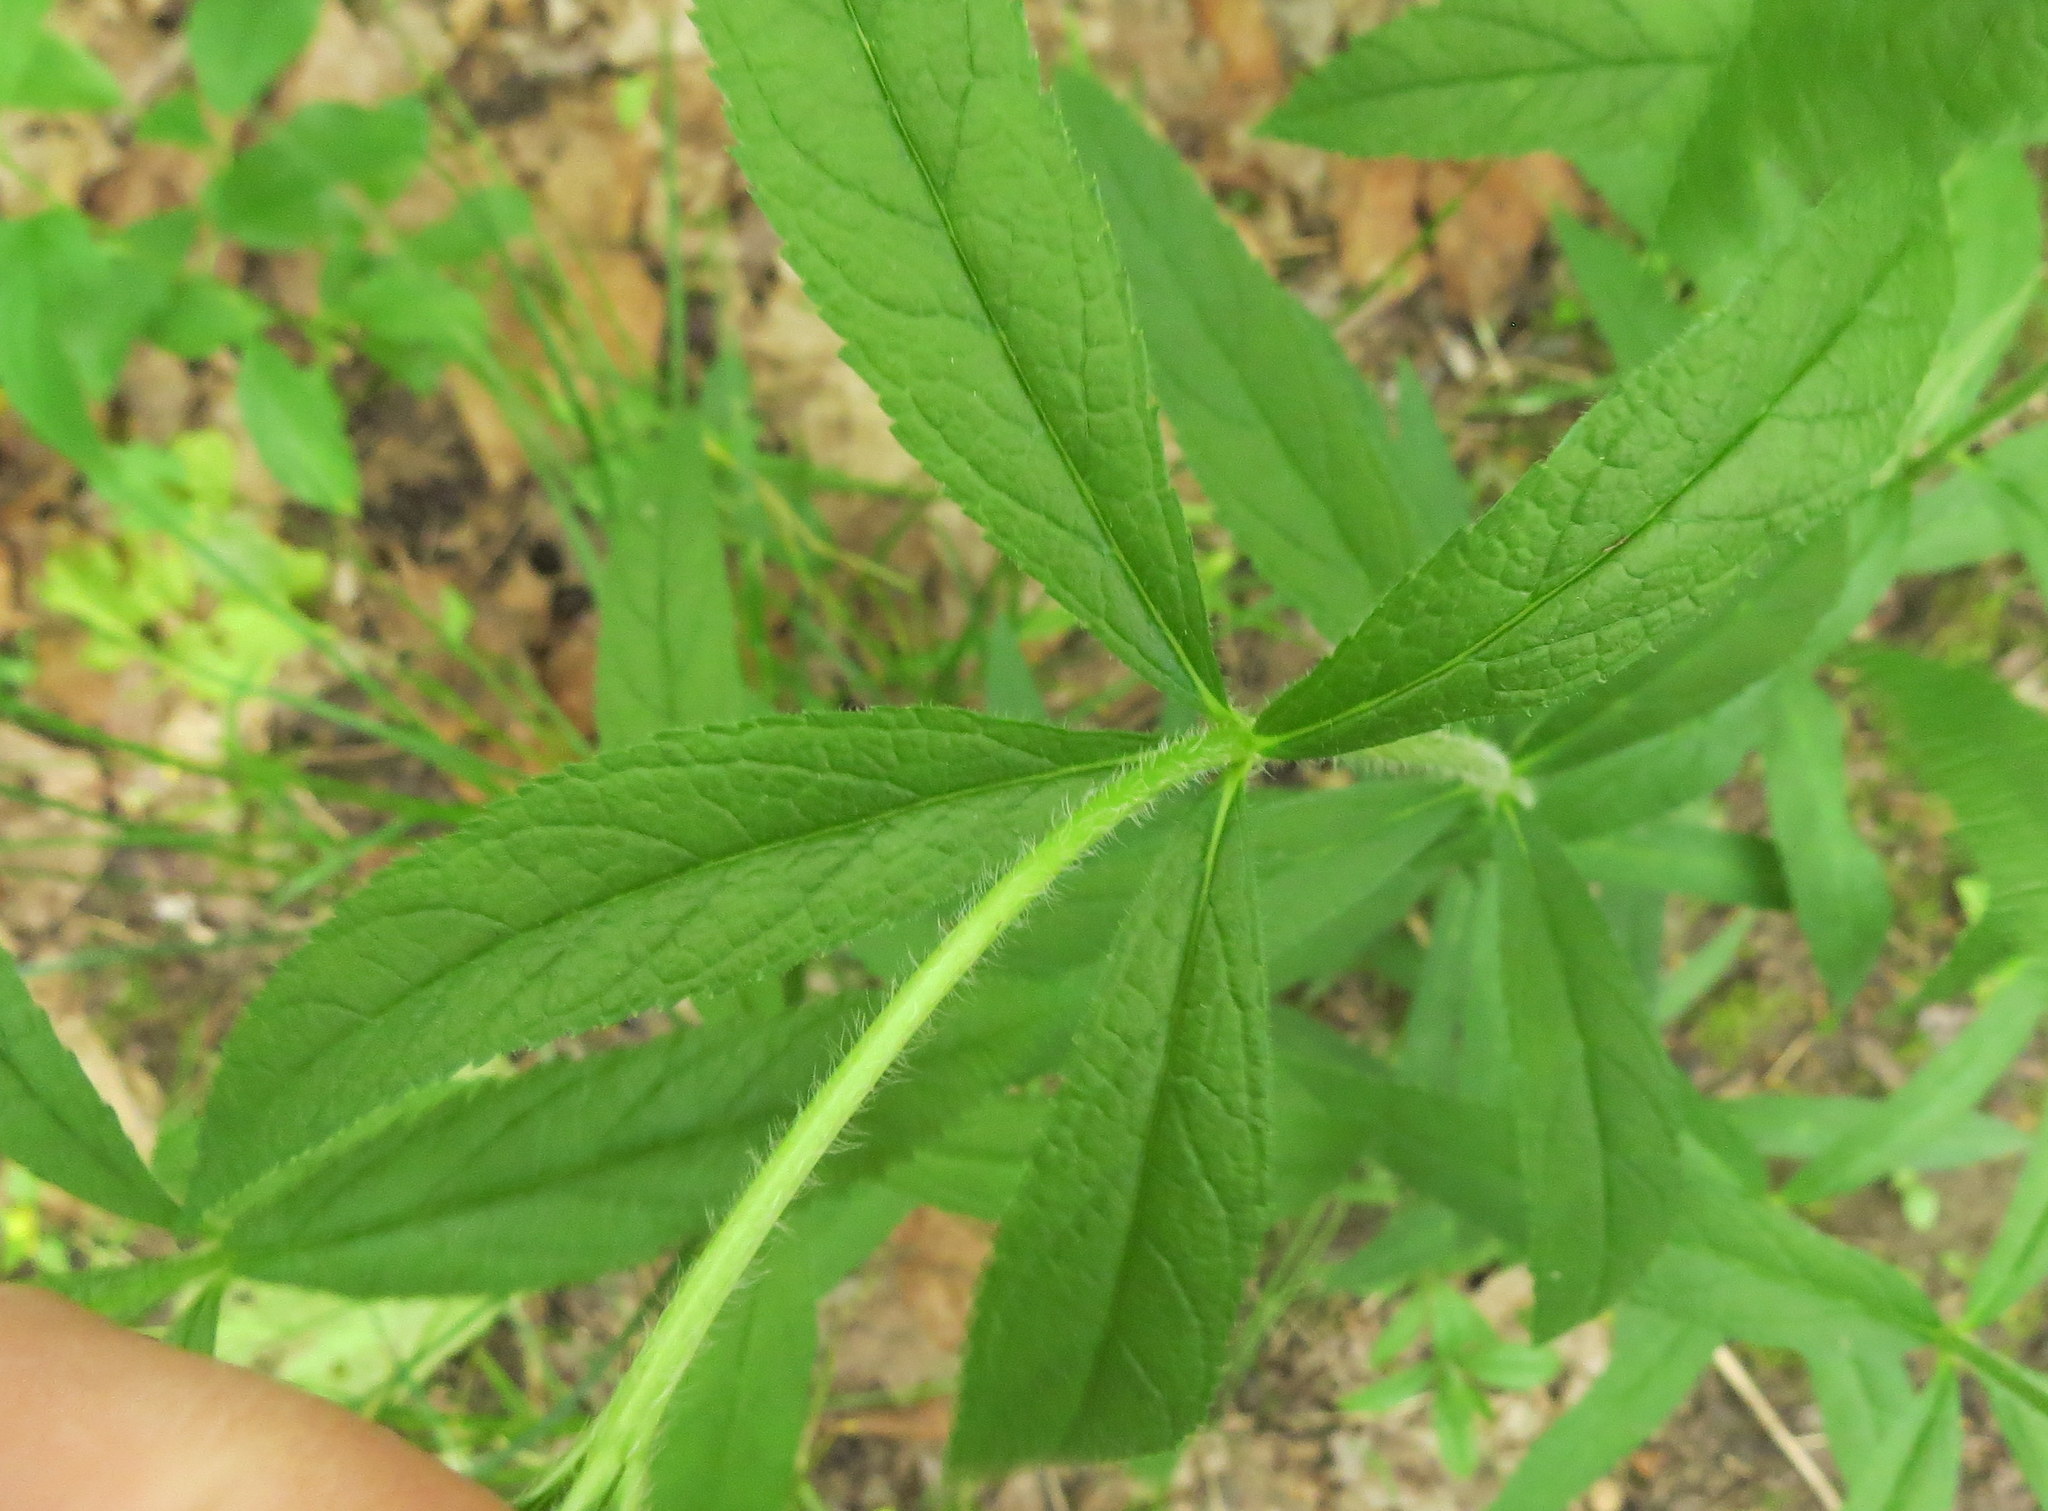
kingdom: Plantae
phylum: Tracheophyta
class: Magnoliopsida
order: Lamiales
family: Plantaginaceae
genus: Veronicastrum
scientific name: Veronicastrum virginicum
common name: Blackroot
